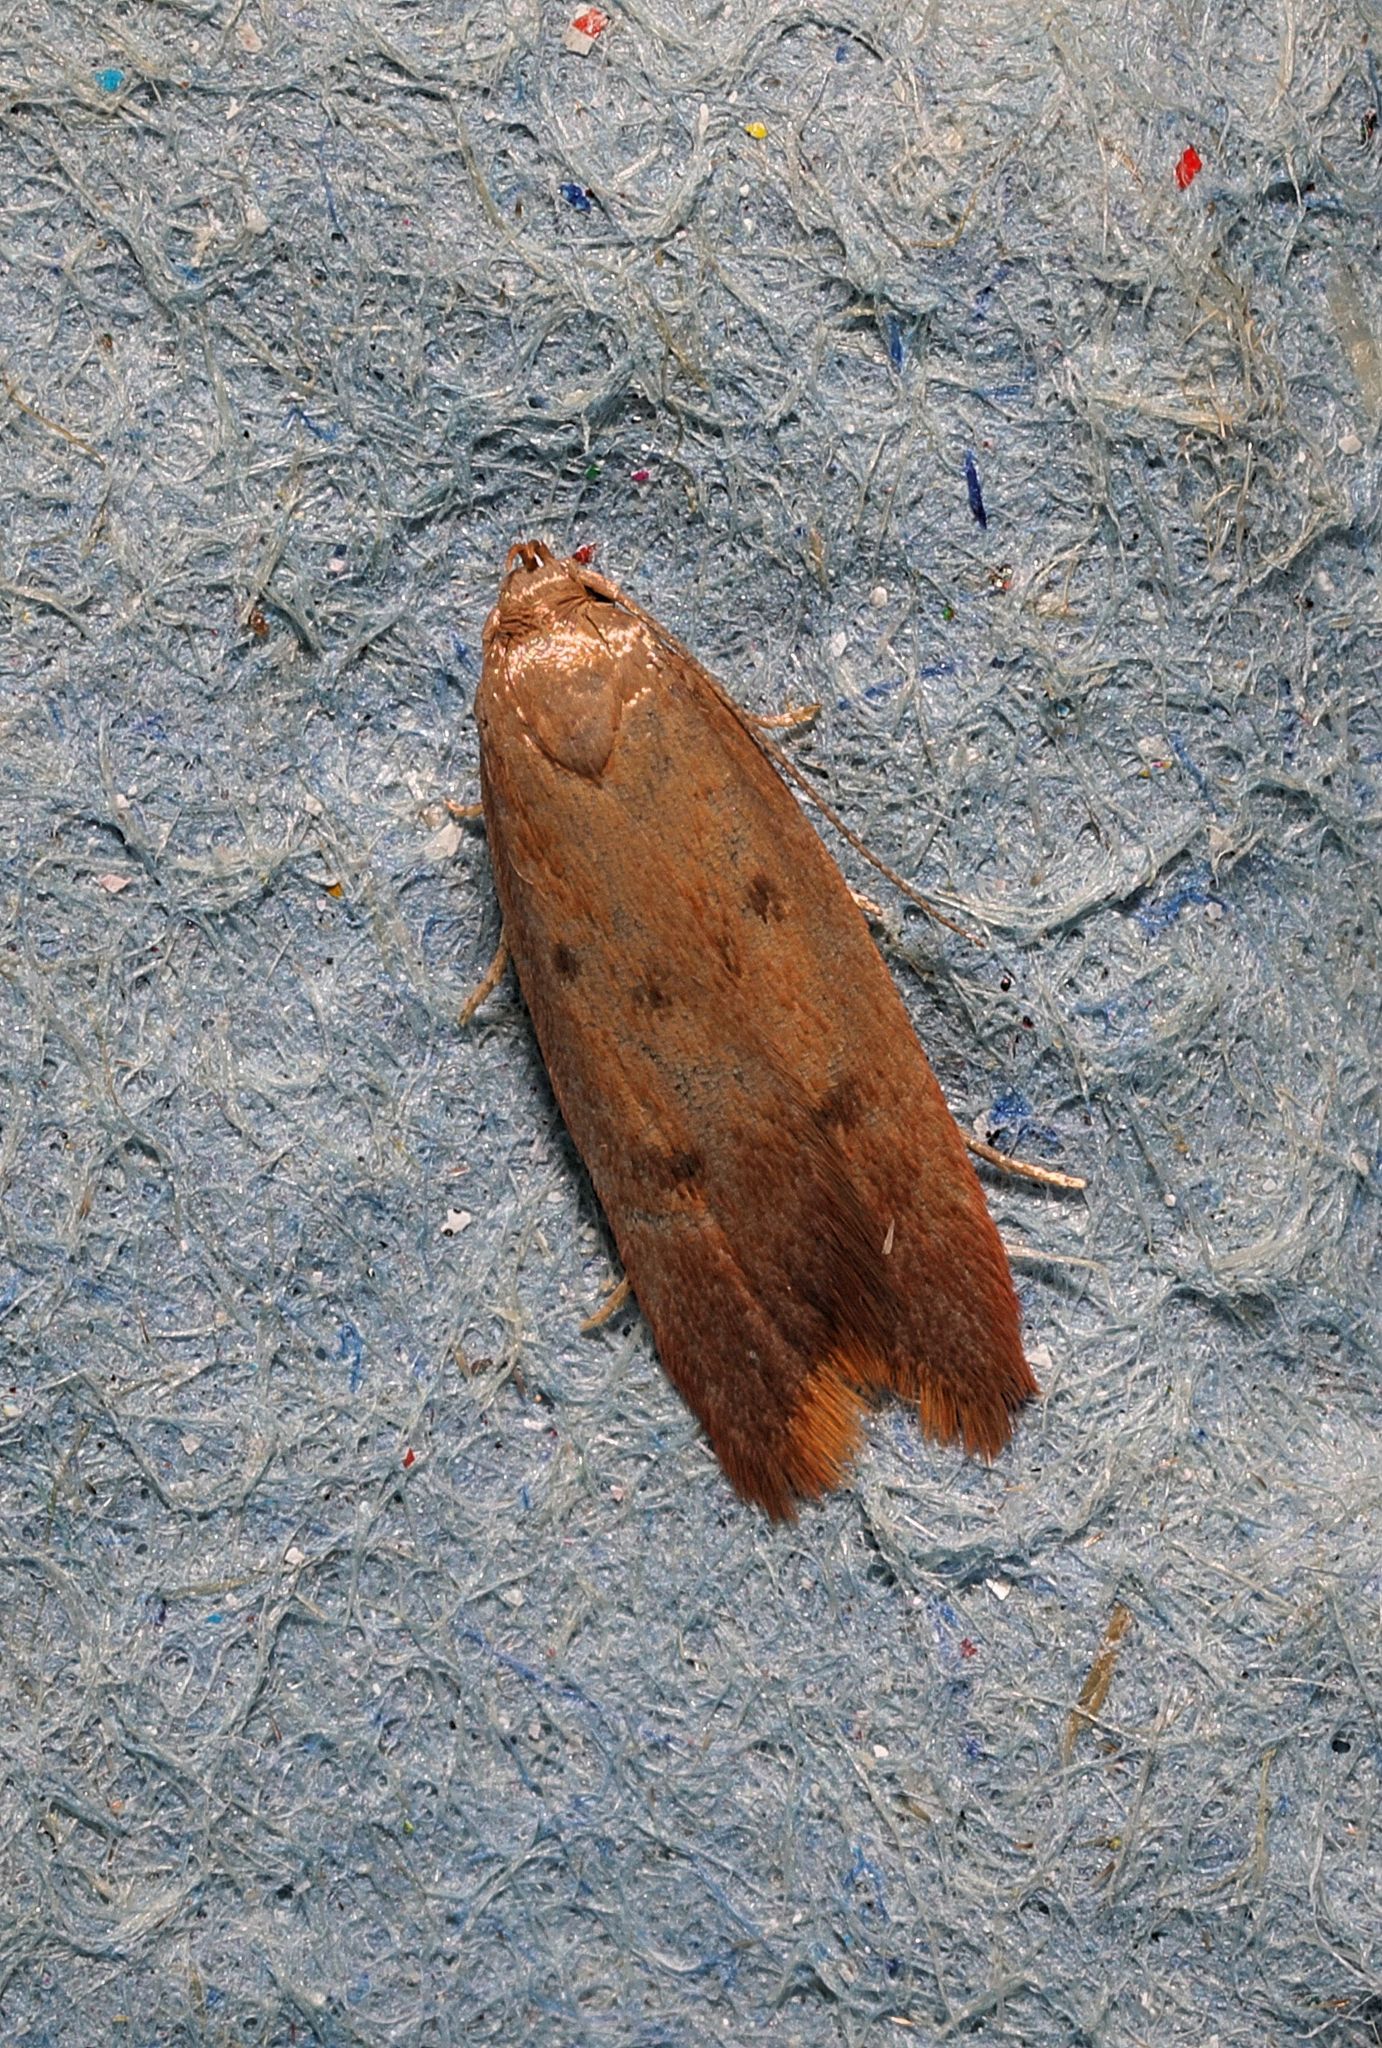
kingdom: Animalia
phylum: Arthropoda
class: Insecta
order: Lepidoptera
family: Oecophoridae
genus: Tachystola
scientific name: Tachystola acroxantha
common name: Ruddy streak
